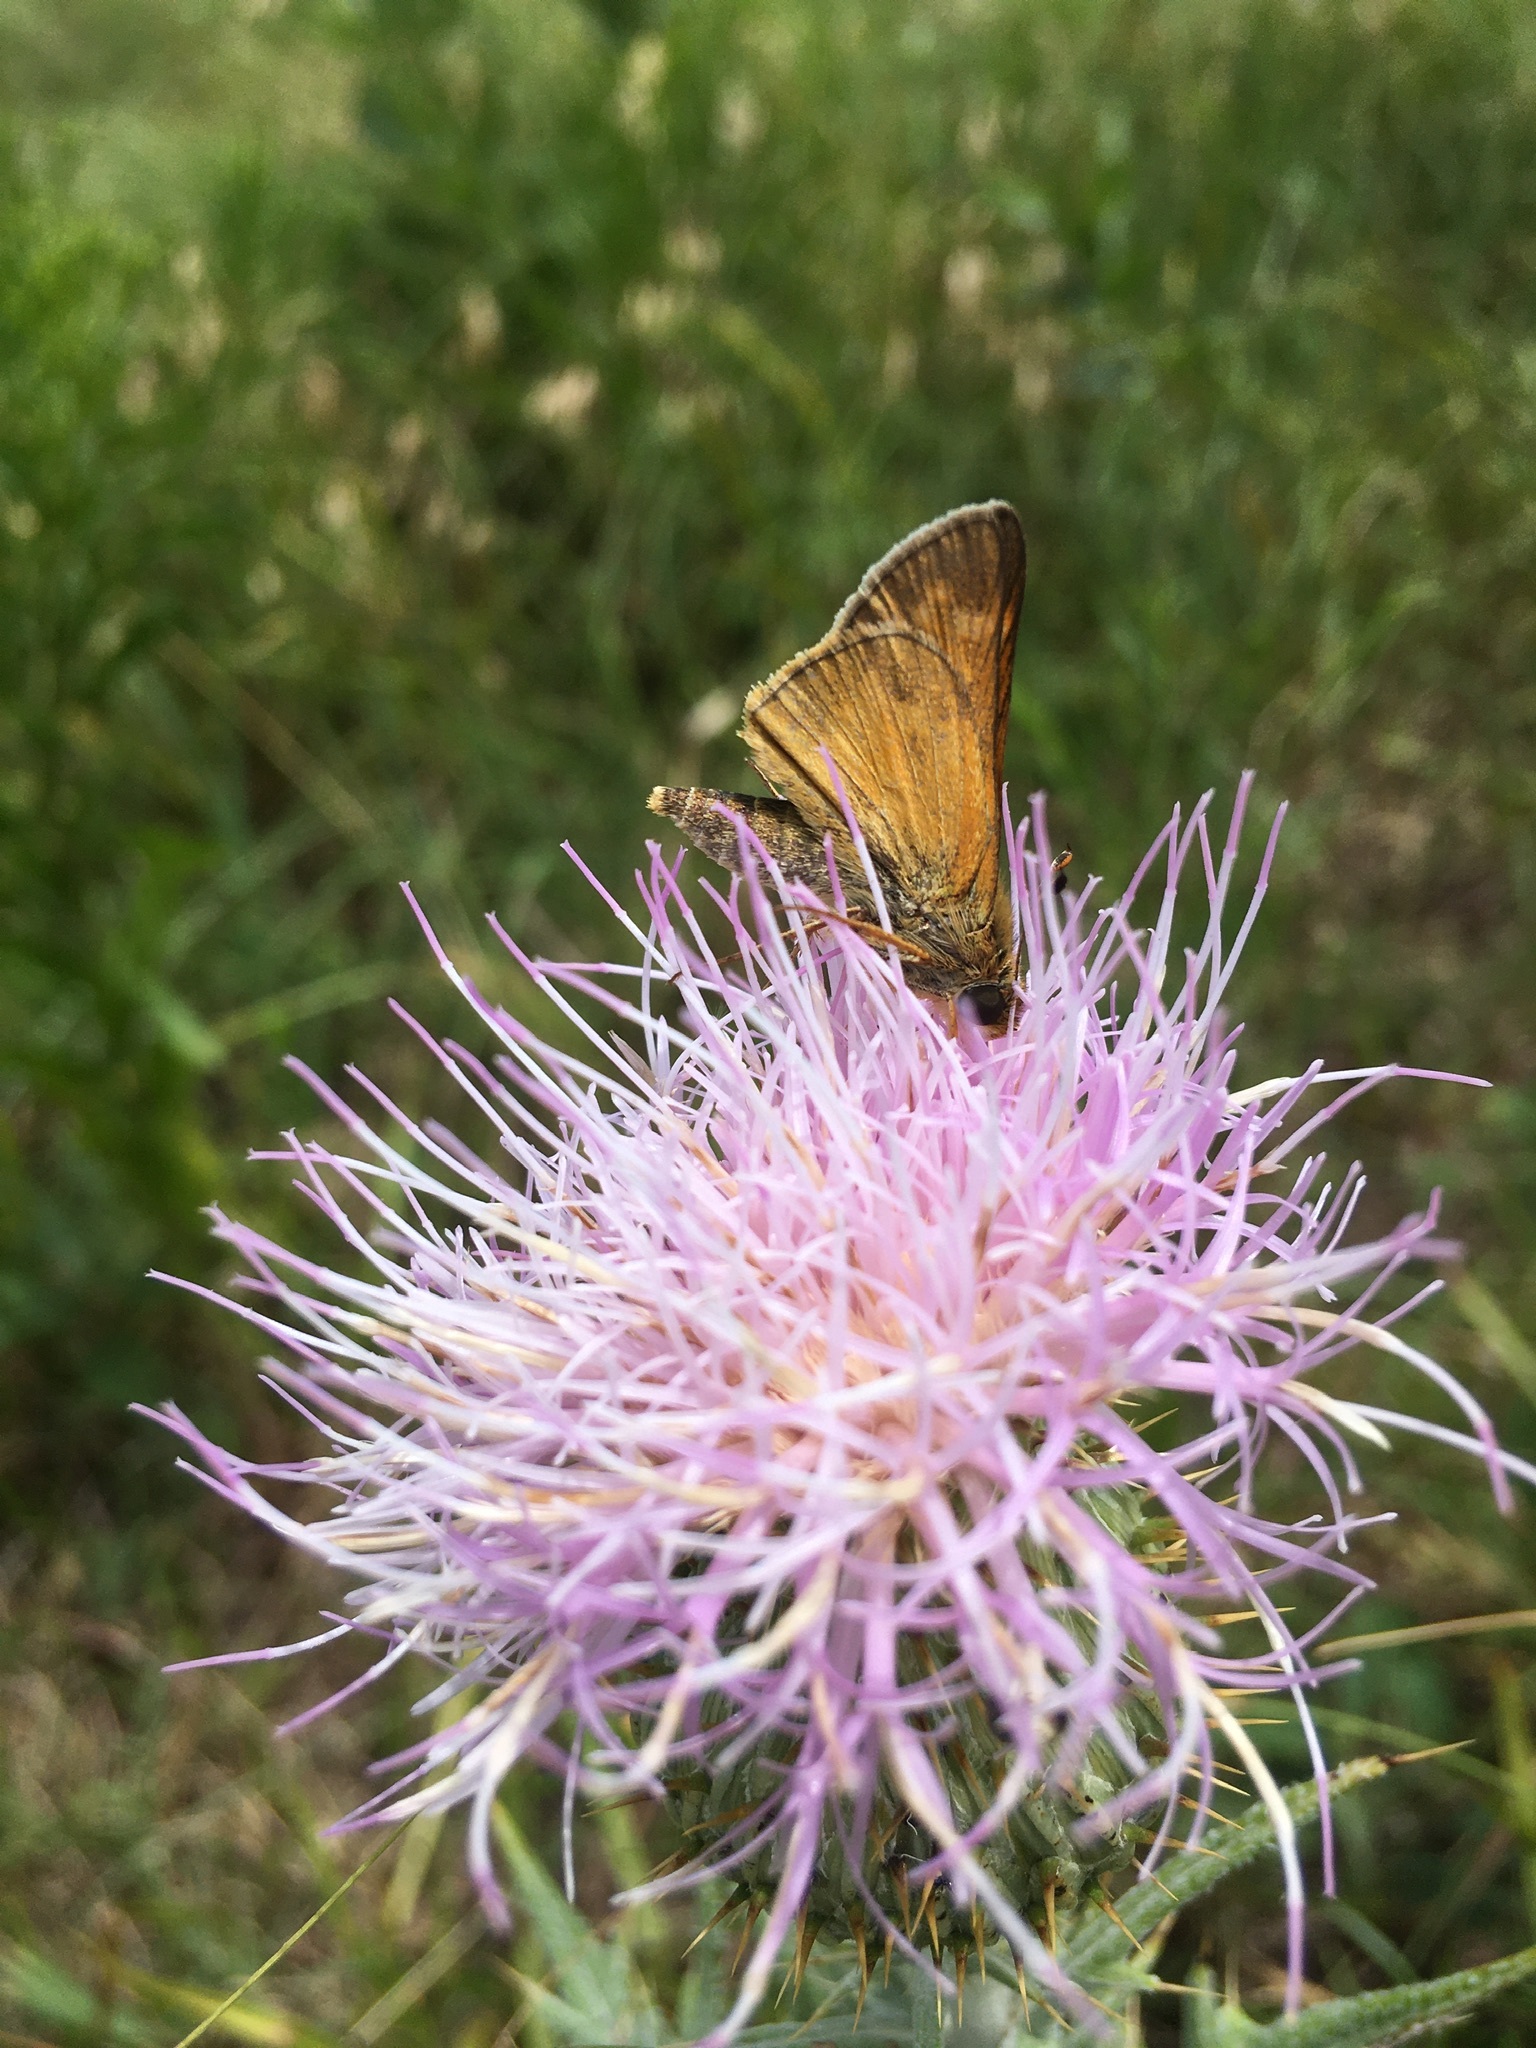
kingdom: Animalia
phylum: Arthropoda
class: Insecta
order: Lepidoptera
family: Hesperiidae
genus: Atalopedes
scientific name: Atalopedes
